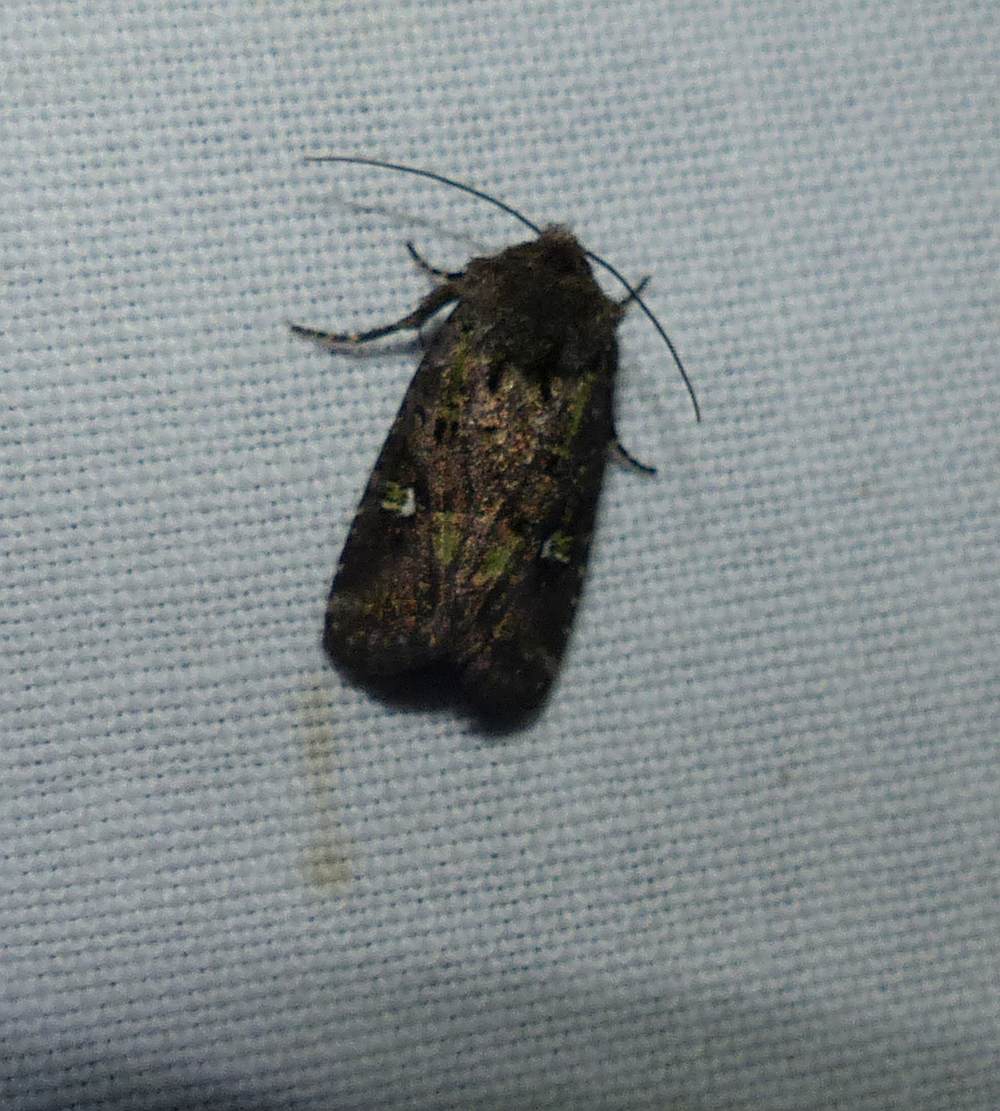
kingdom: Animalia
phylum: Arthropoda
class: Insecta
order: Lepidoptera
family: Noctuidae
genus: Lacinipolia
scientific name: Lacinipolia renigera
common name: Kidney-spotted minor
